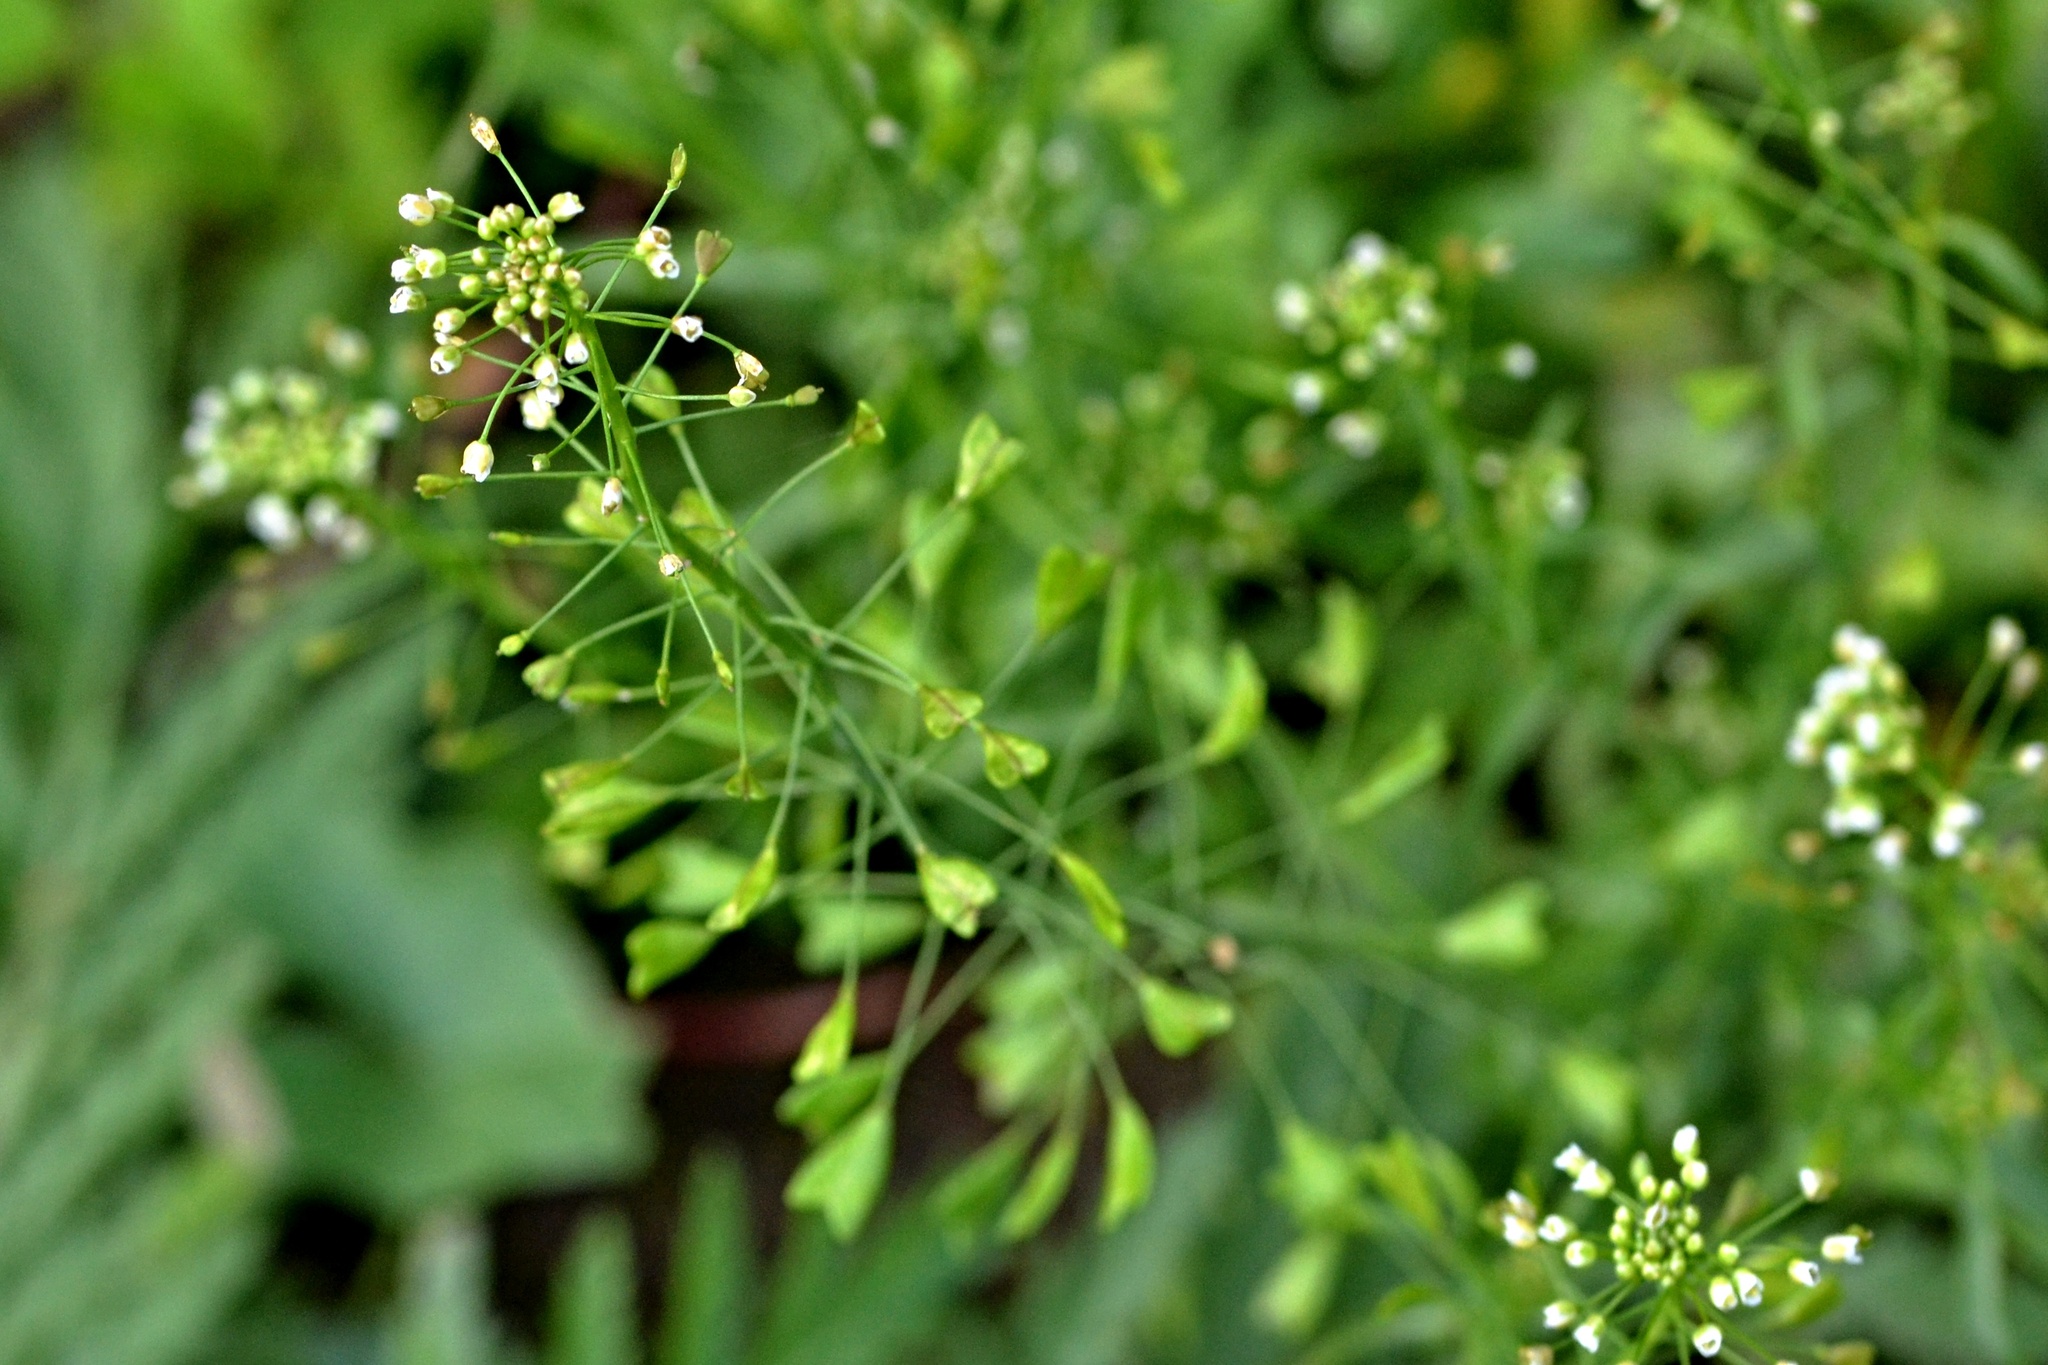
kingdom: Plantae
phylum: Tracheophyta
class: Magnoliopsida
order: Brassicales
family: Brassicaceae
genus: Capsella
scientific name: Capsella bursa-pastoris
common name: Shepherd's purse
